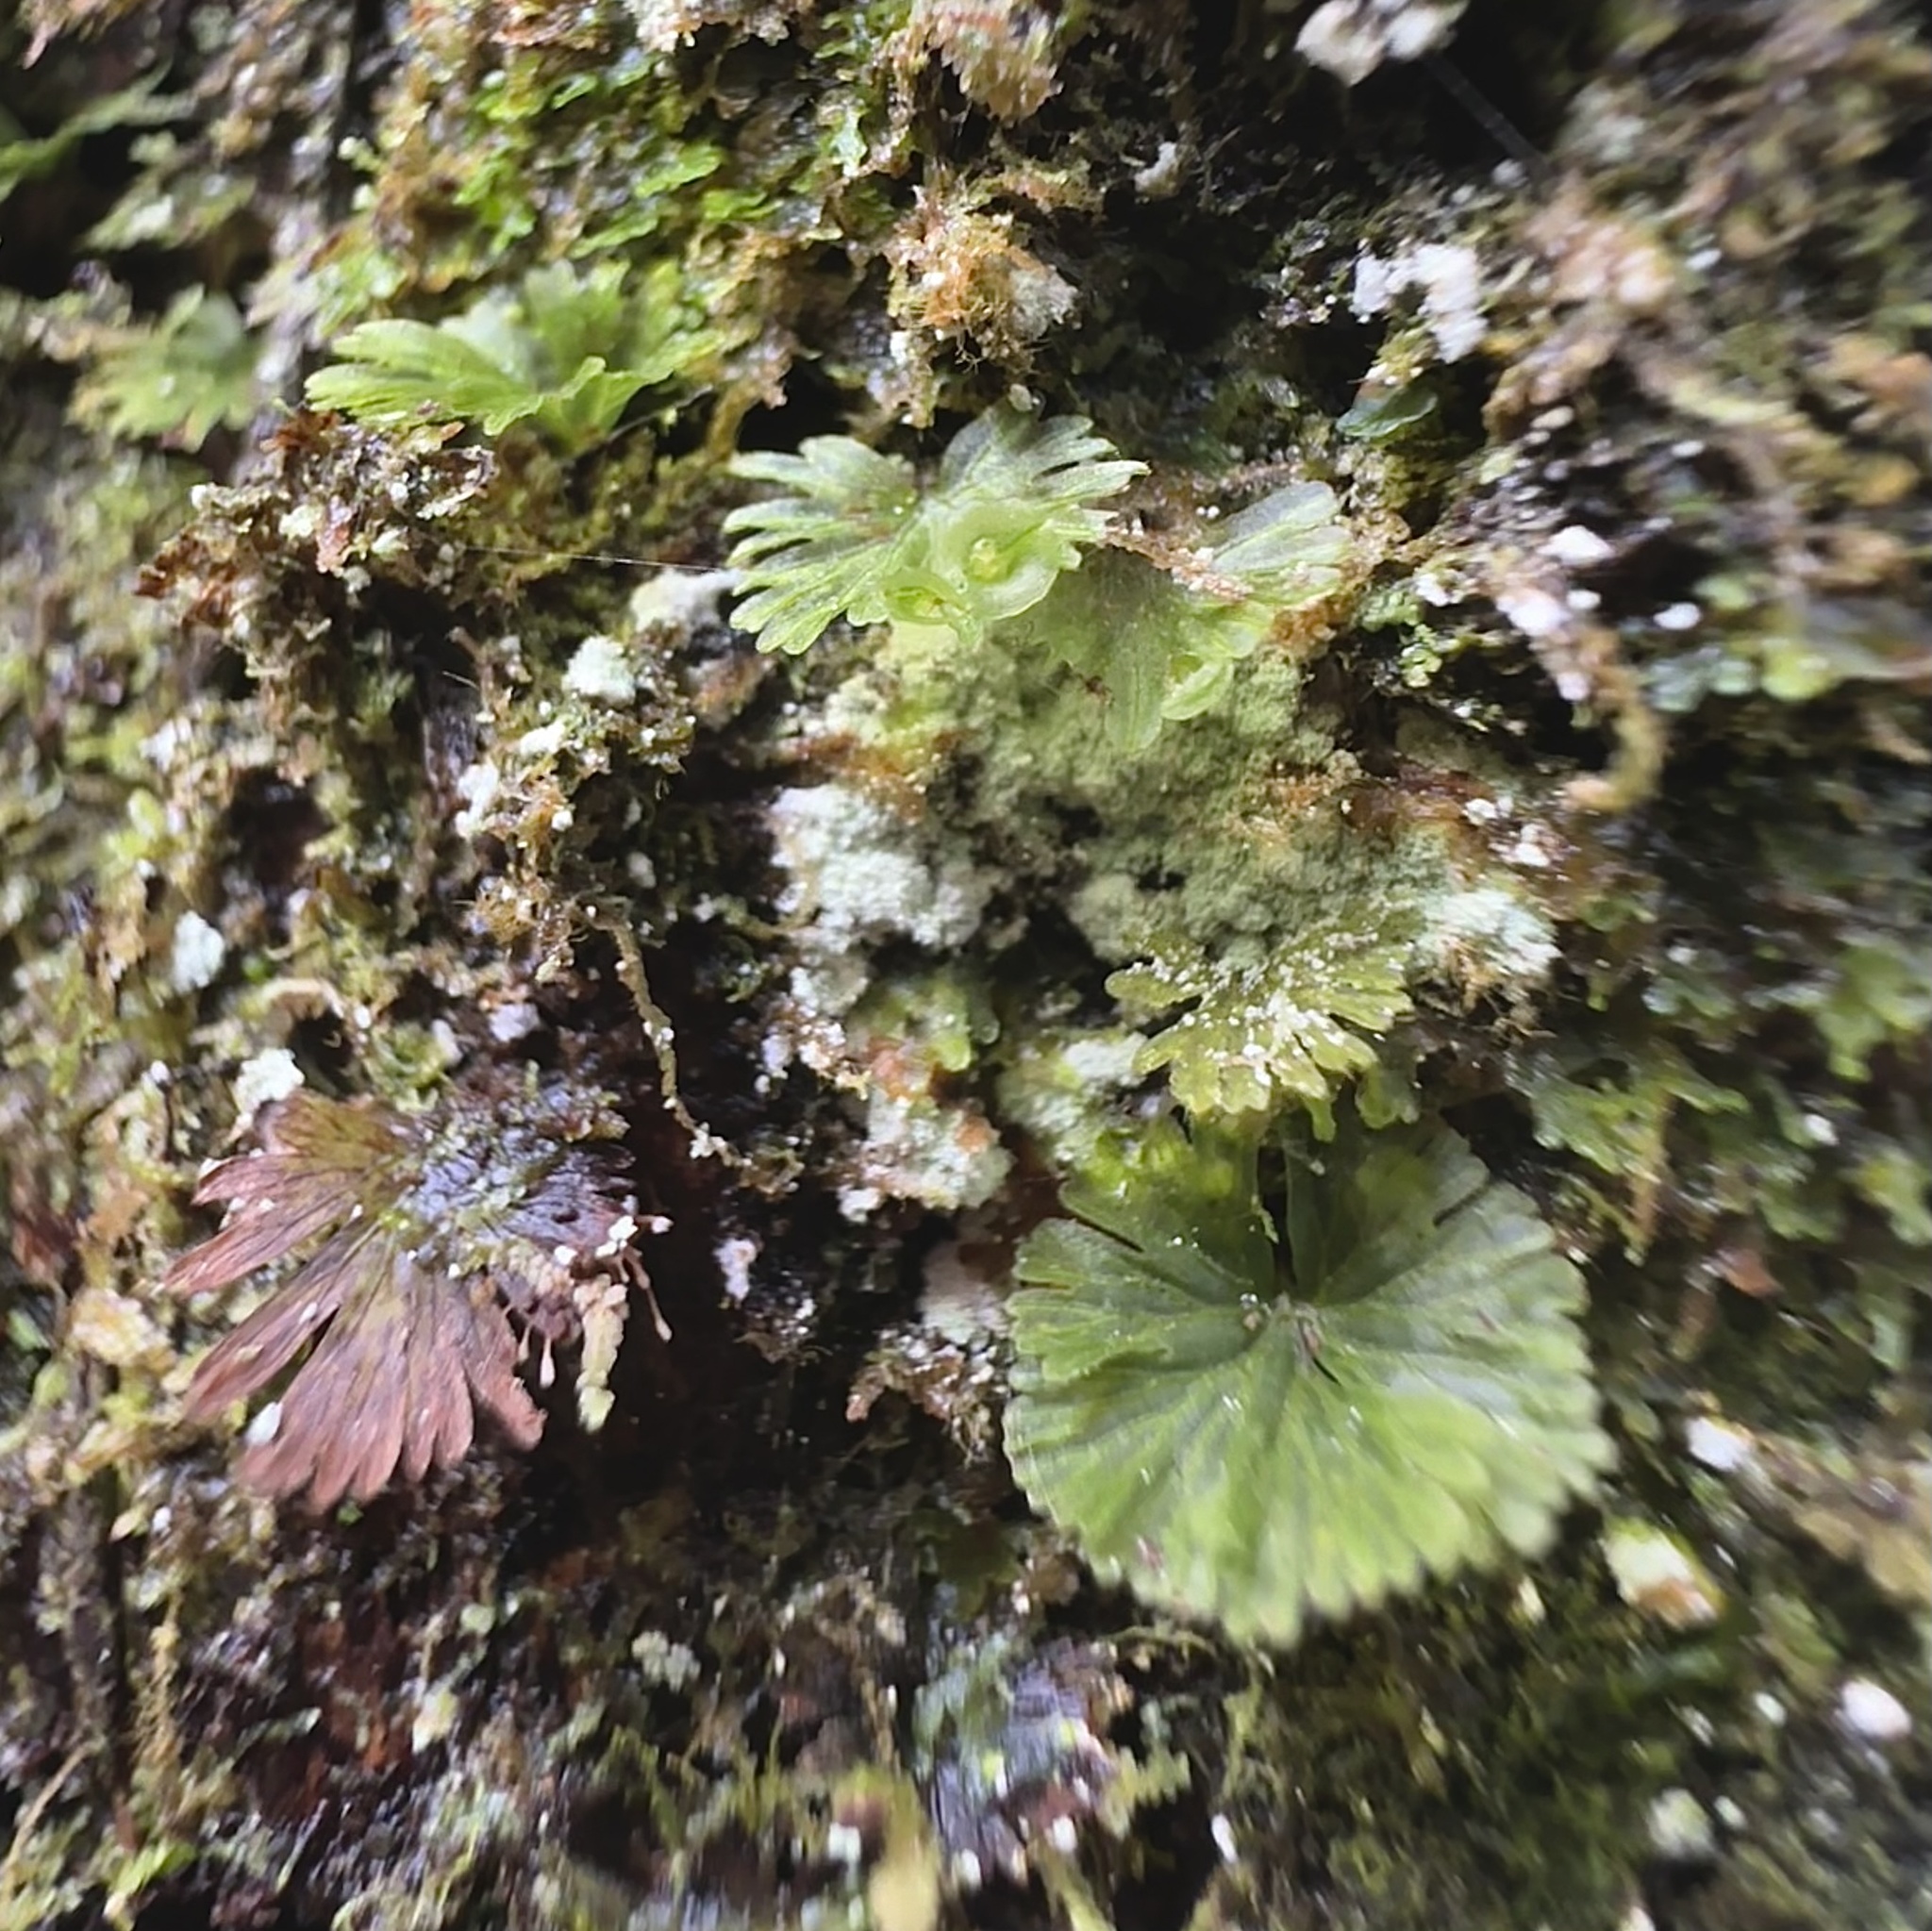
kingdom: Plantae
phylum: Tracheophyta
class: Polypodiopsida
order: Hymenophyllales
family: Hymenophyllaceae
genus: Crepidomanes
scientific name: Crepidomanes parvulum
